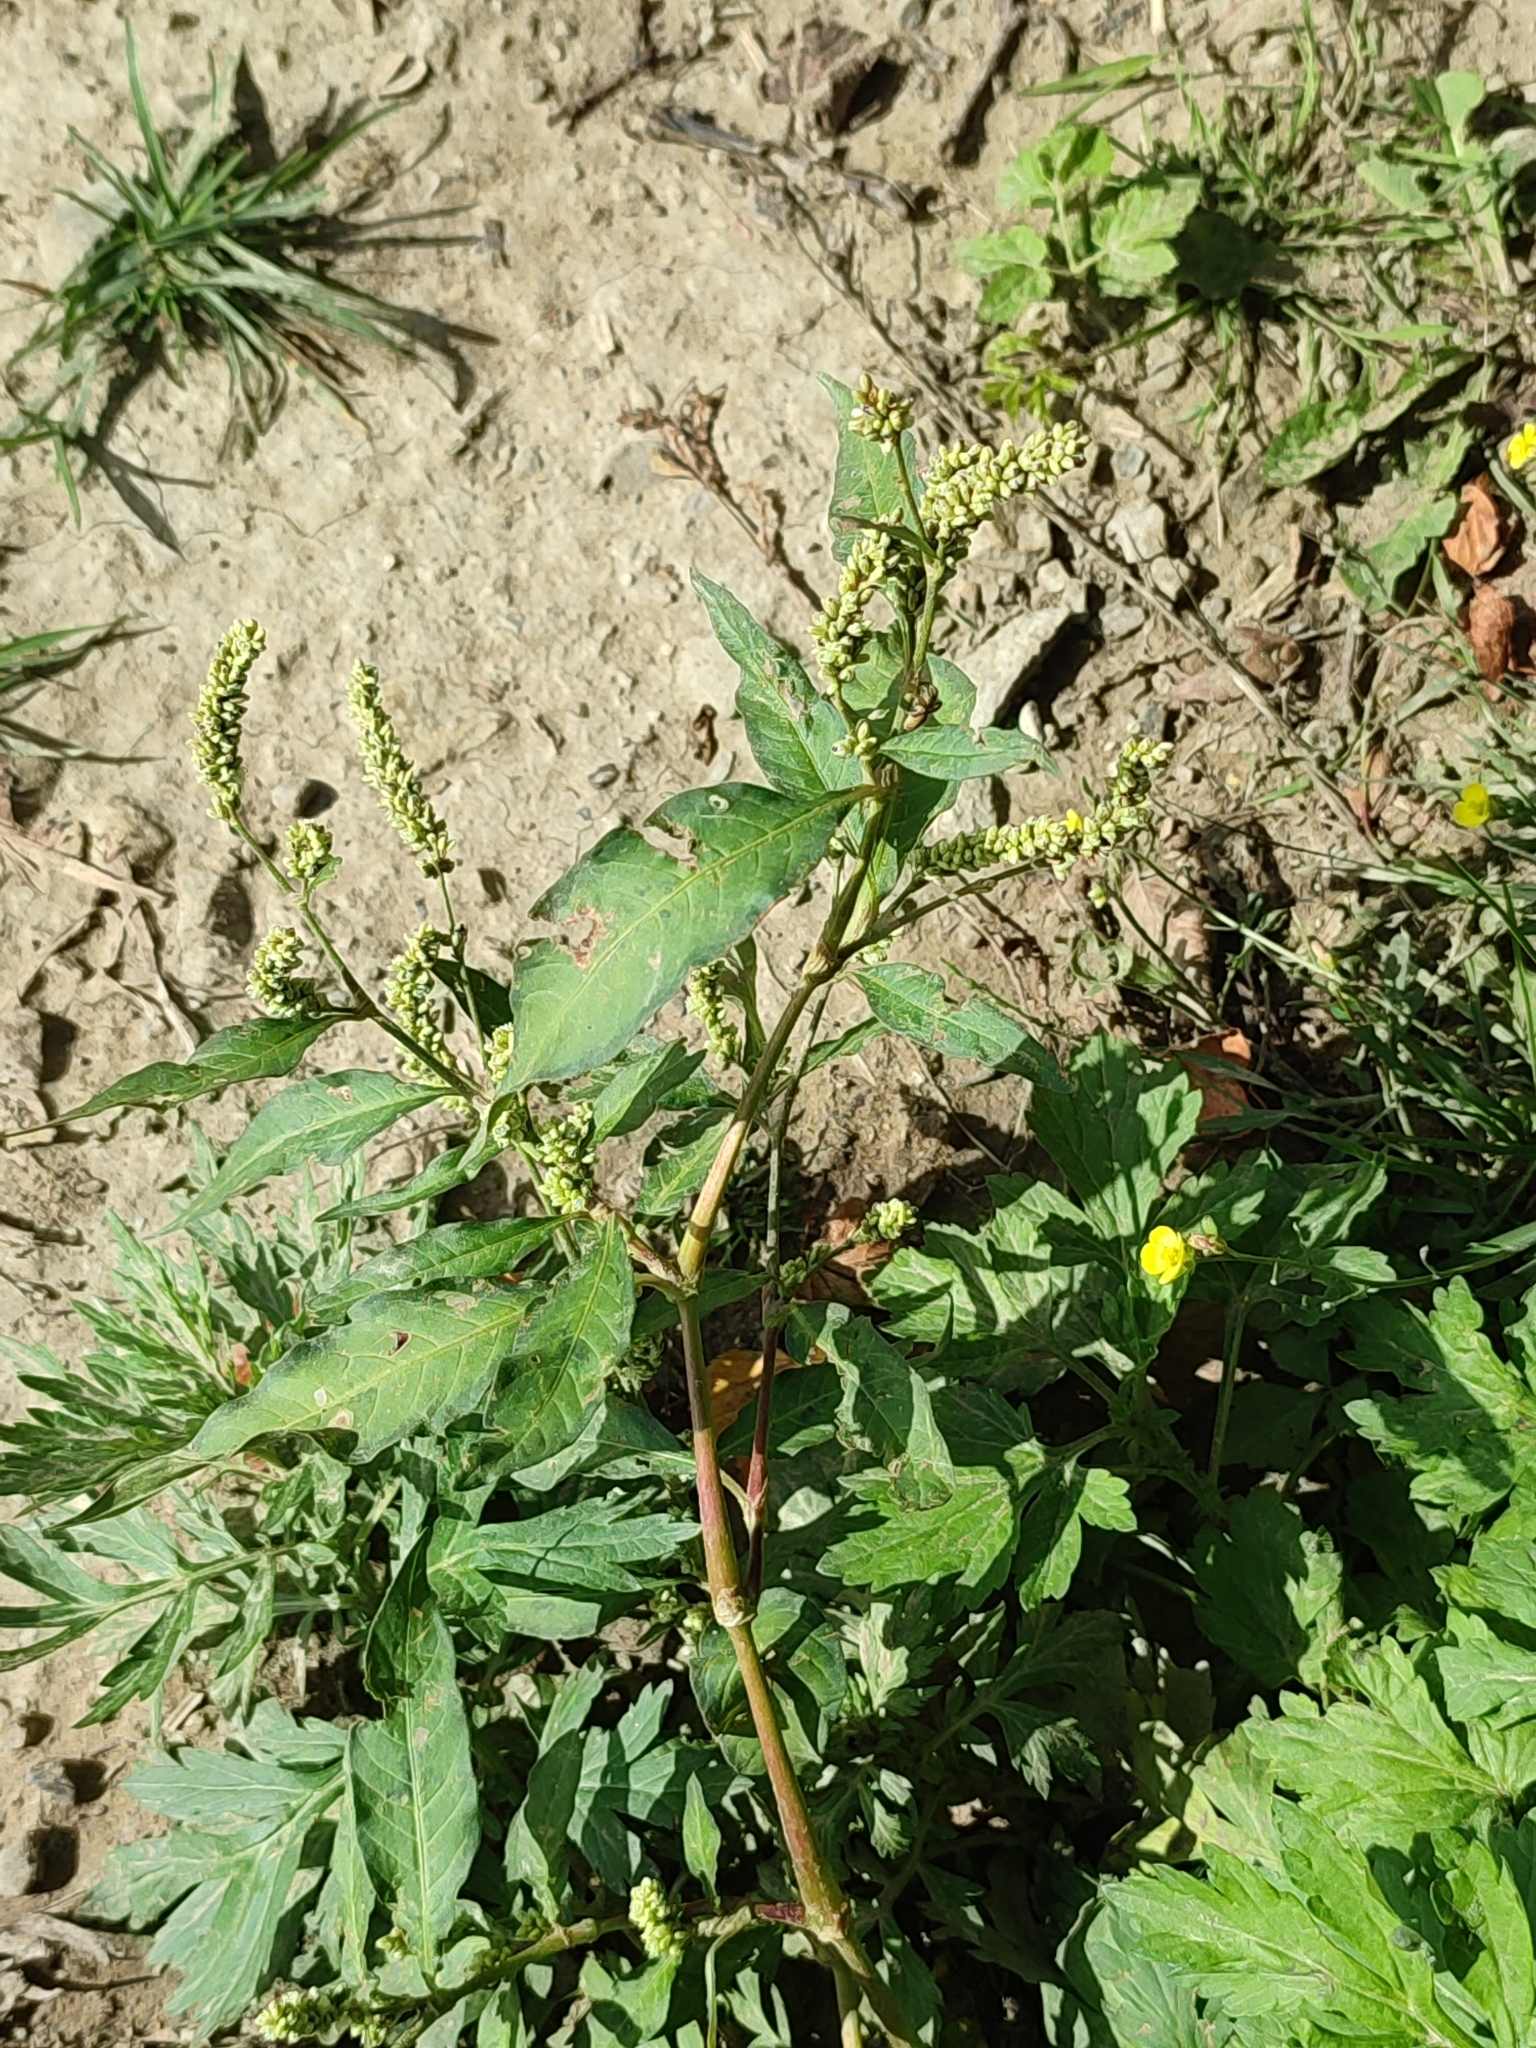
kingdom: Plantae
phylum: Tracheophyta
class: Magnoliopsida
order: Caryophyllales
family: Polygonaceae
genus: Persicaria
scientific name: Persicaria lapathifolia
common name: Curlytop knotweed
